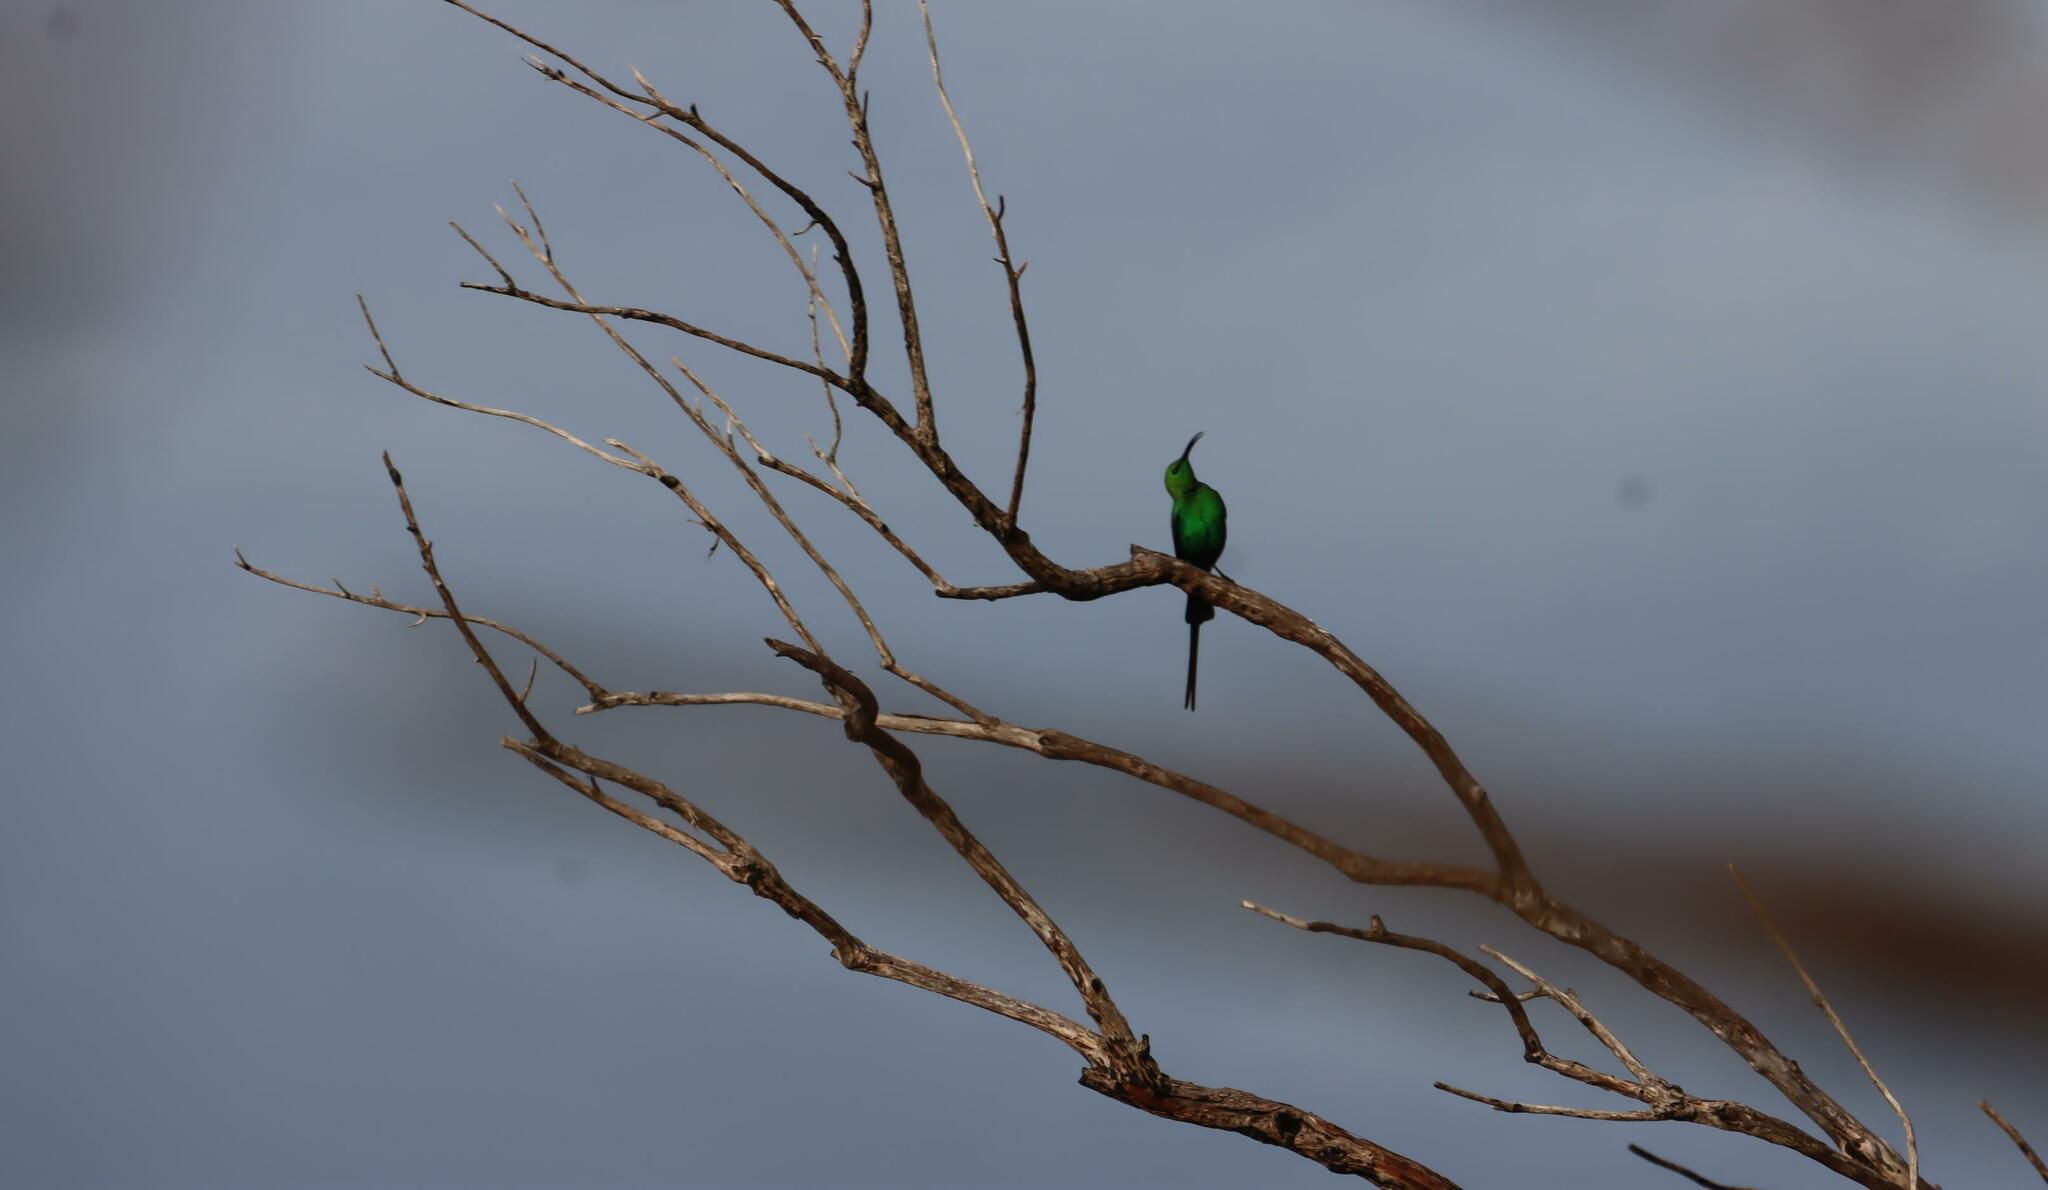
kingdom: Animalia
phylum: Chordata
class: Aves
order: Passeriformes
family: Nectariniidae
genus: Nectarinia
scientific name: Nectarinia famosa
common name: Malachite sunbird
